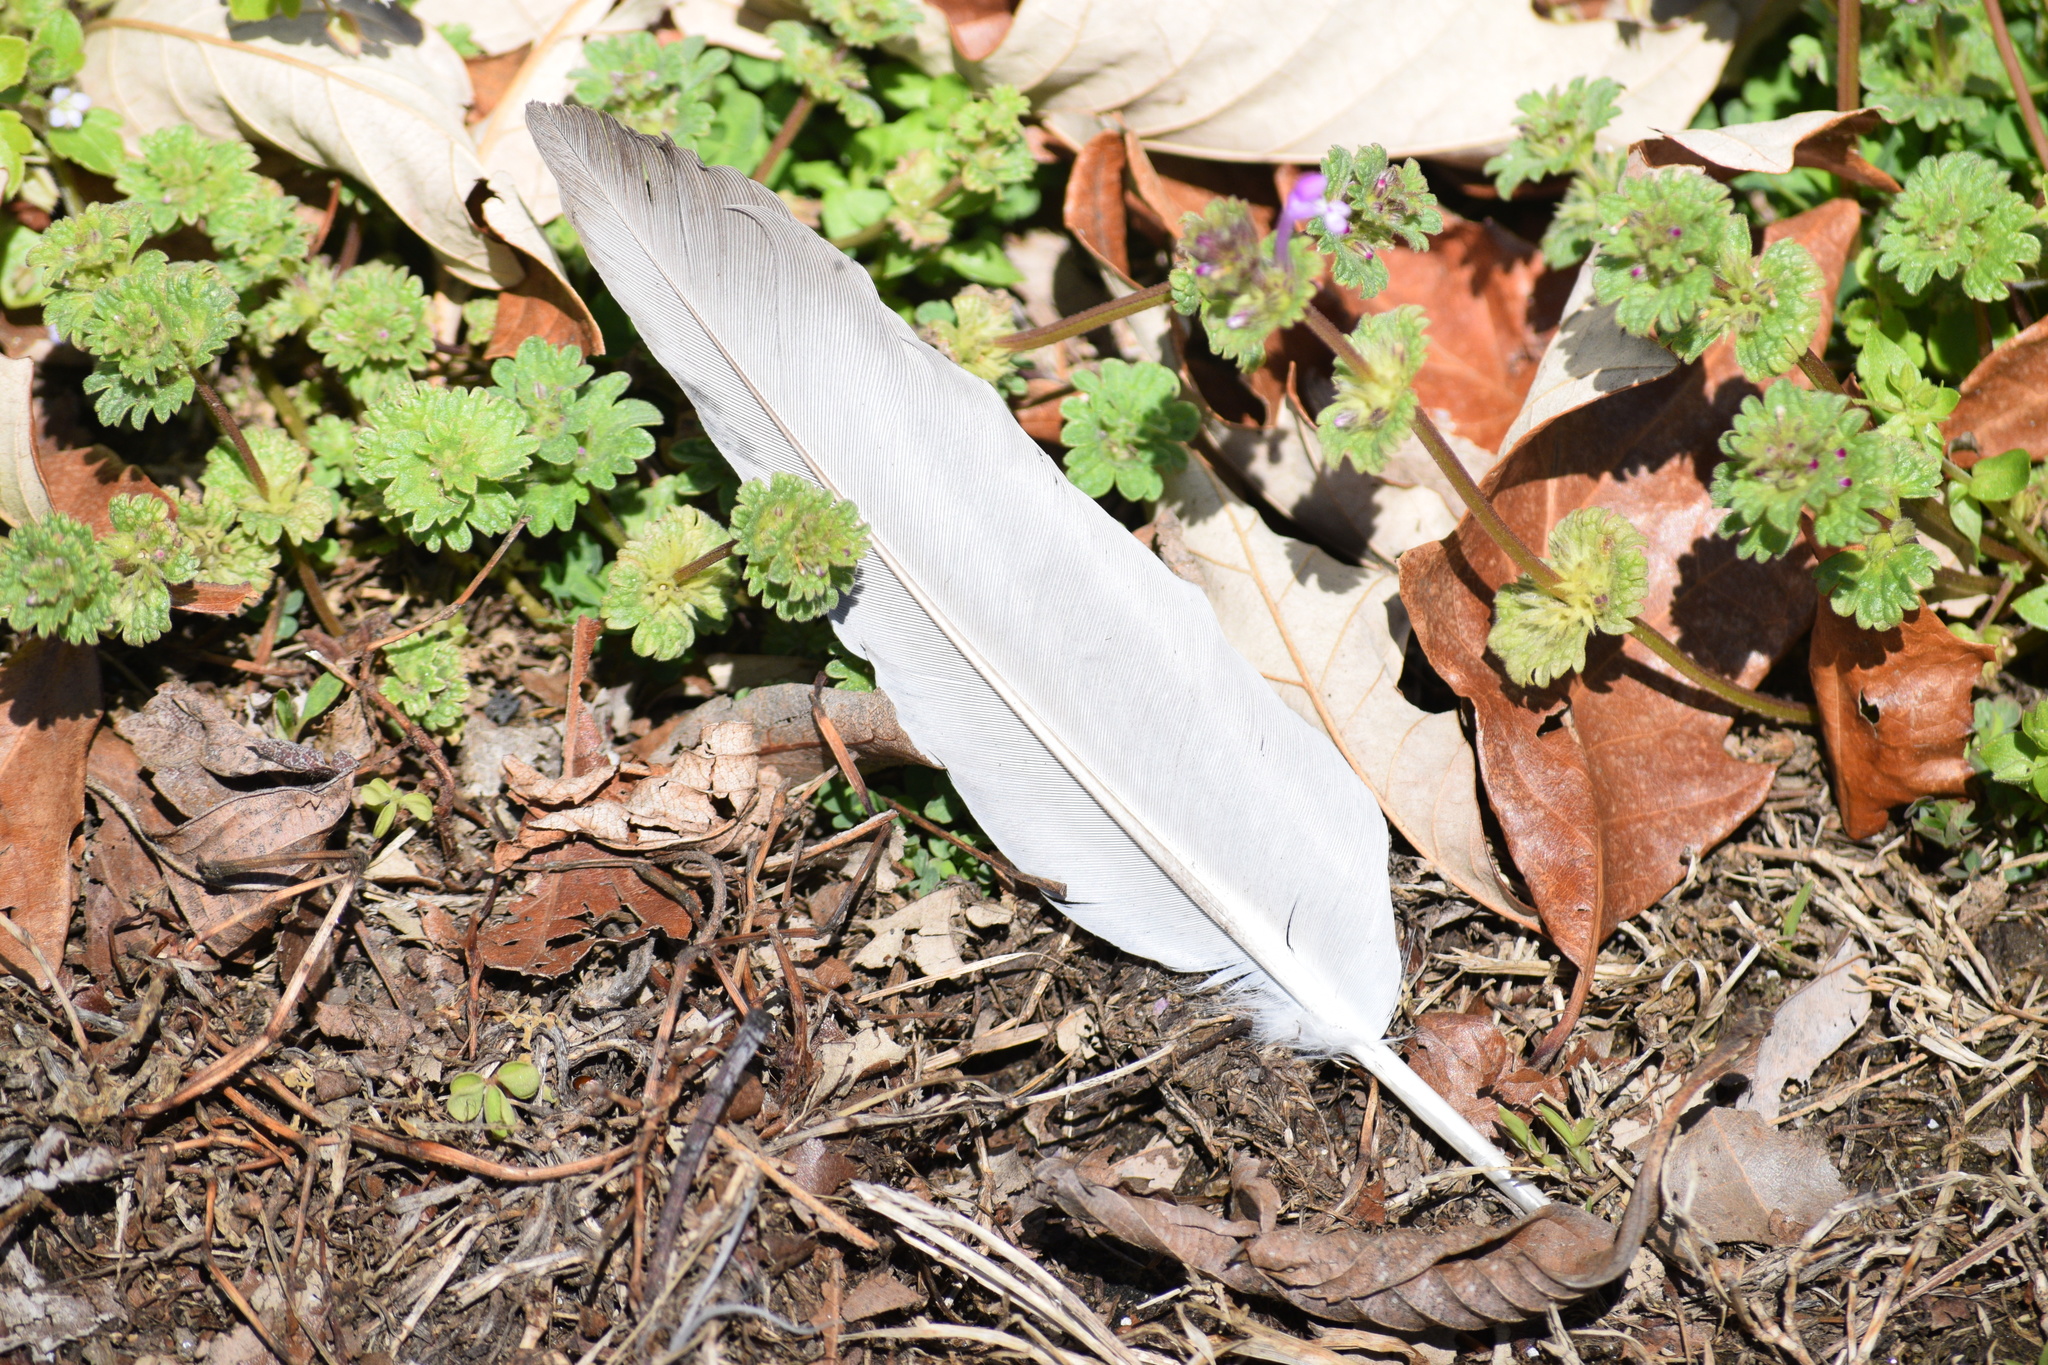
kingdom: Animalia
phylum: Chordata
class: Aves
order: Columbiformes
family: Columbidae
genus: Columba
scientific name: Columba livia
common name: Rock pigeon
